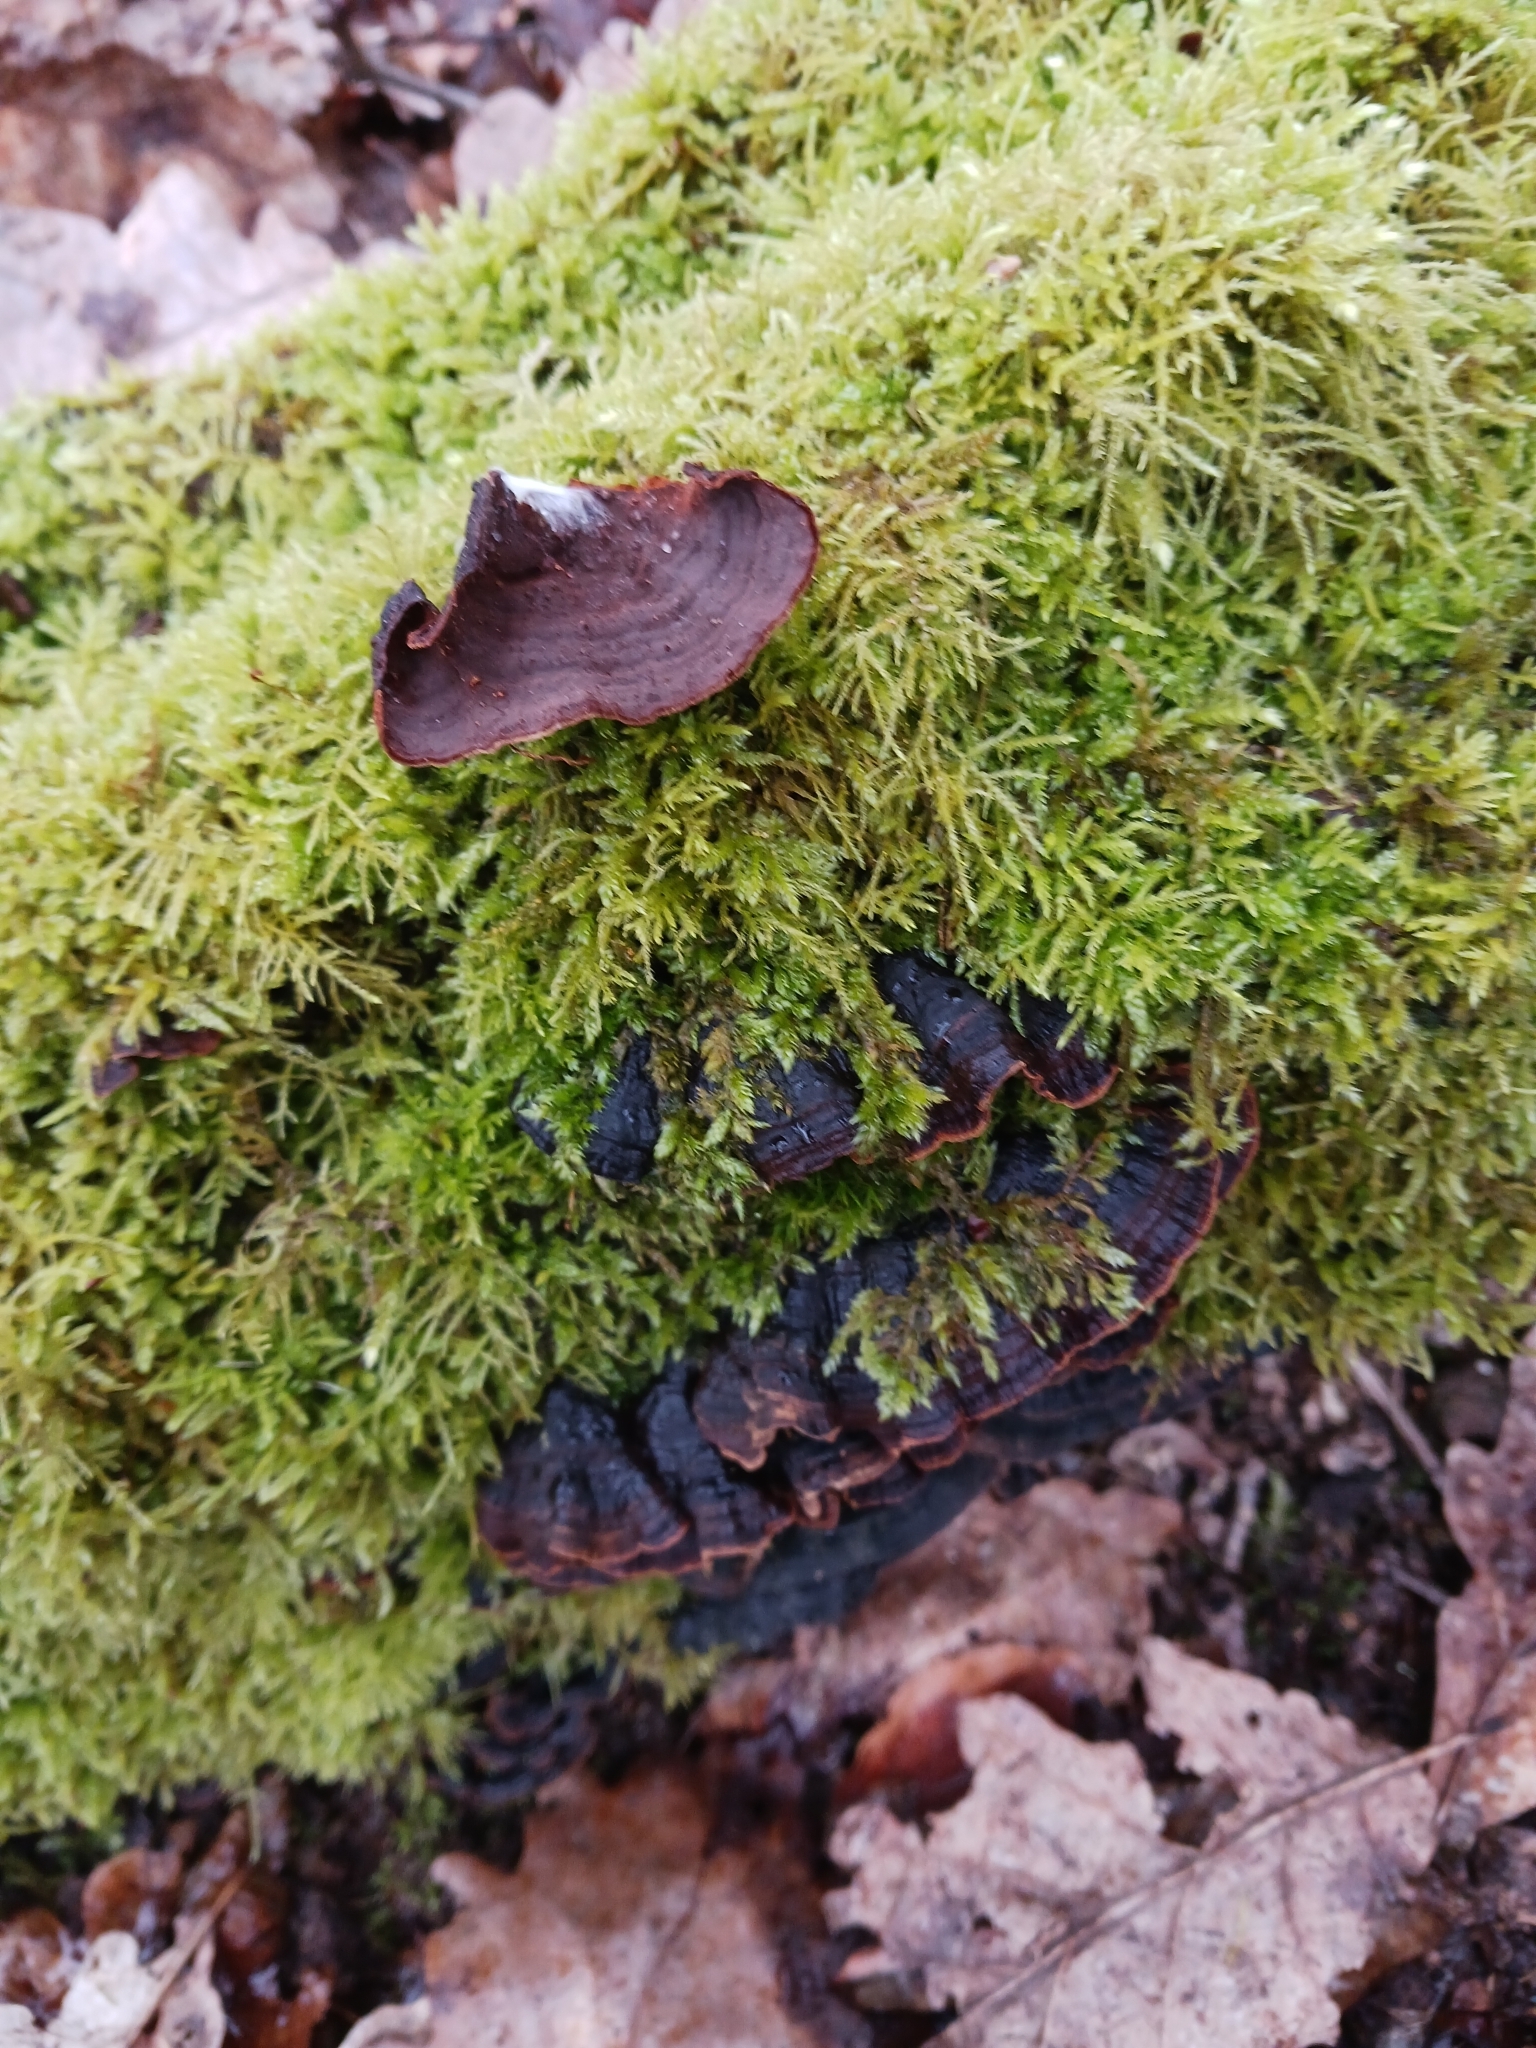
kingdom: Fungi
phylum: Basidiomycota
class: Agaricomycetes
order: Hymenochaetales
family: Hymenochaetaceae
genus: Hymenochaete
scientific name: Hymenochaete rubiginosa
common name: Oak curtain crust
